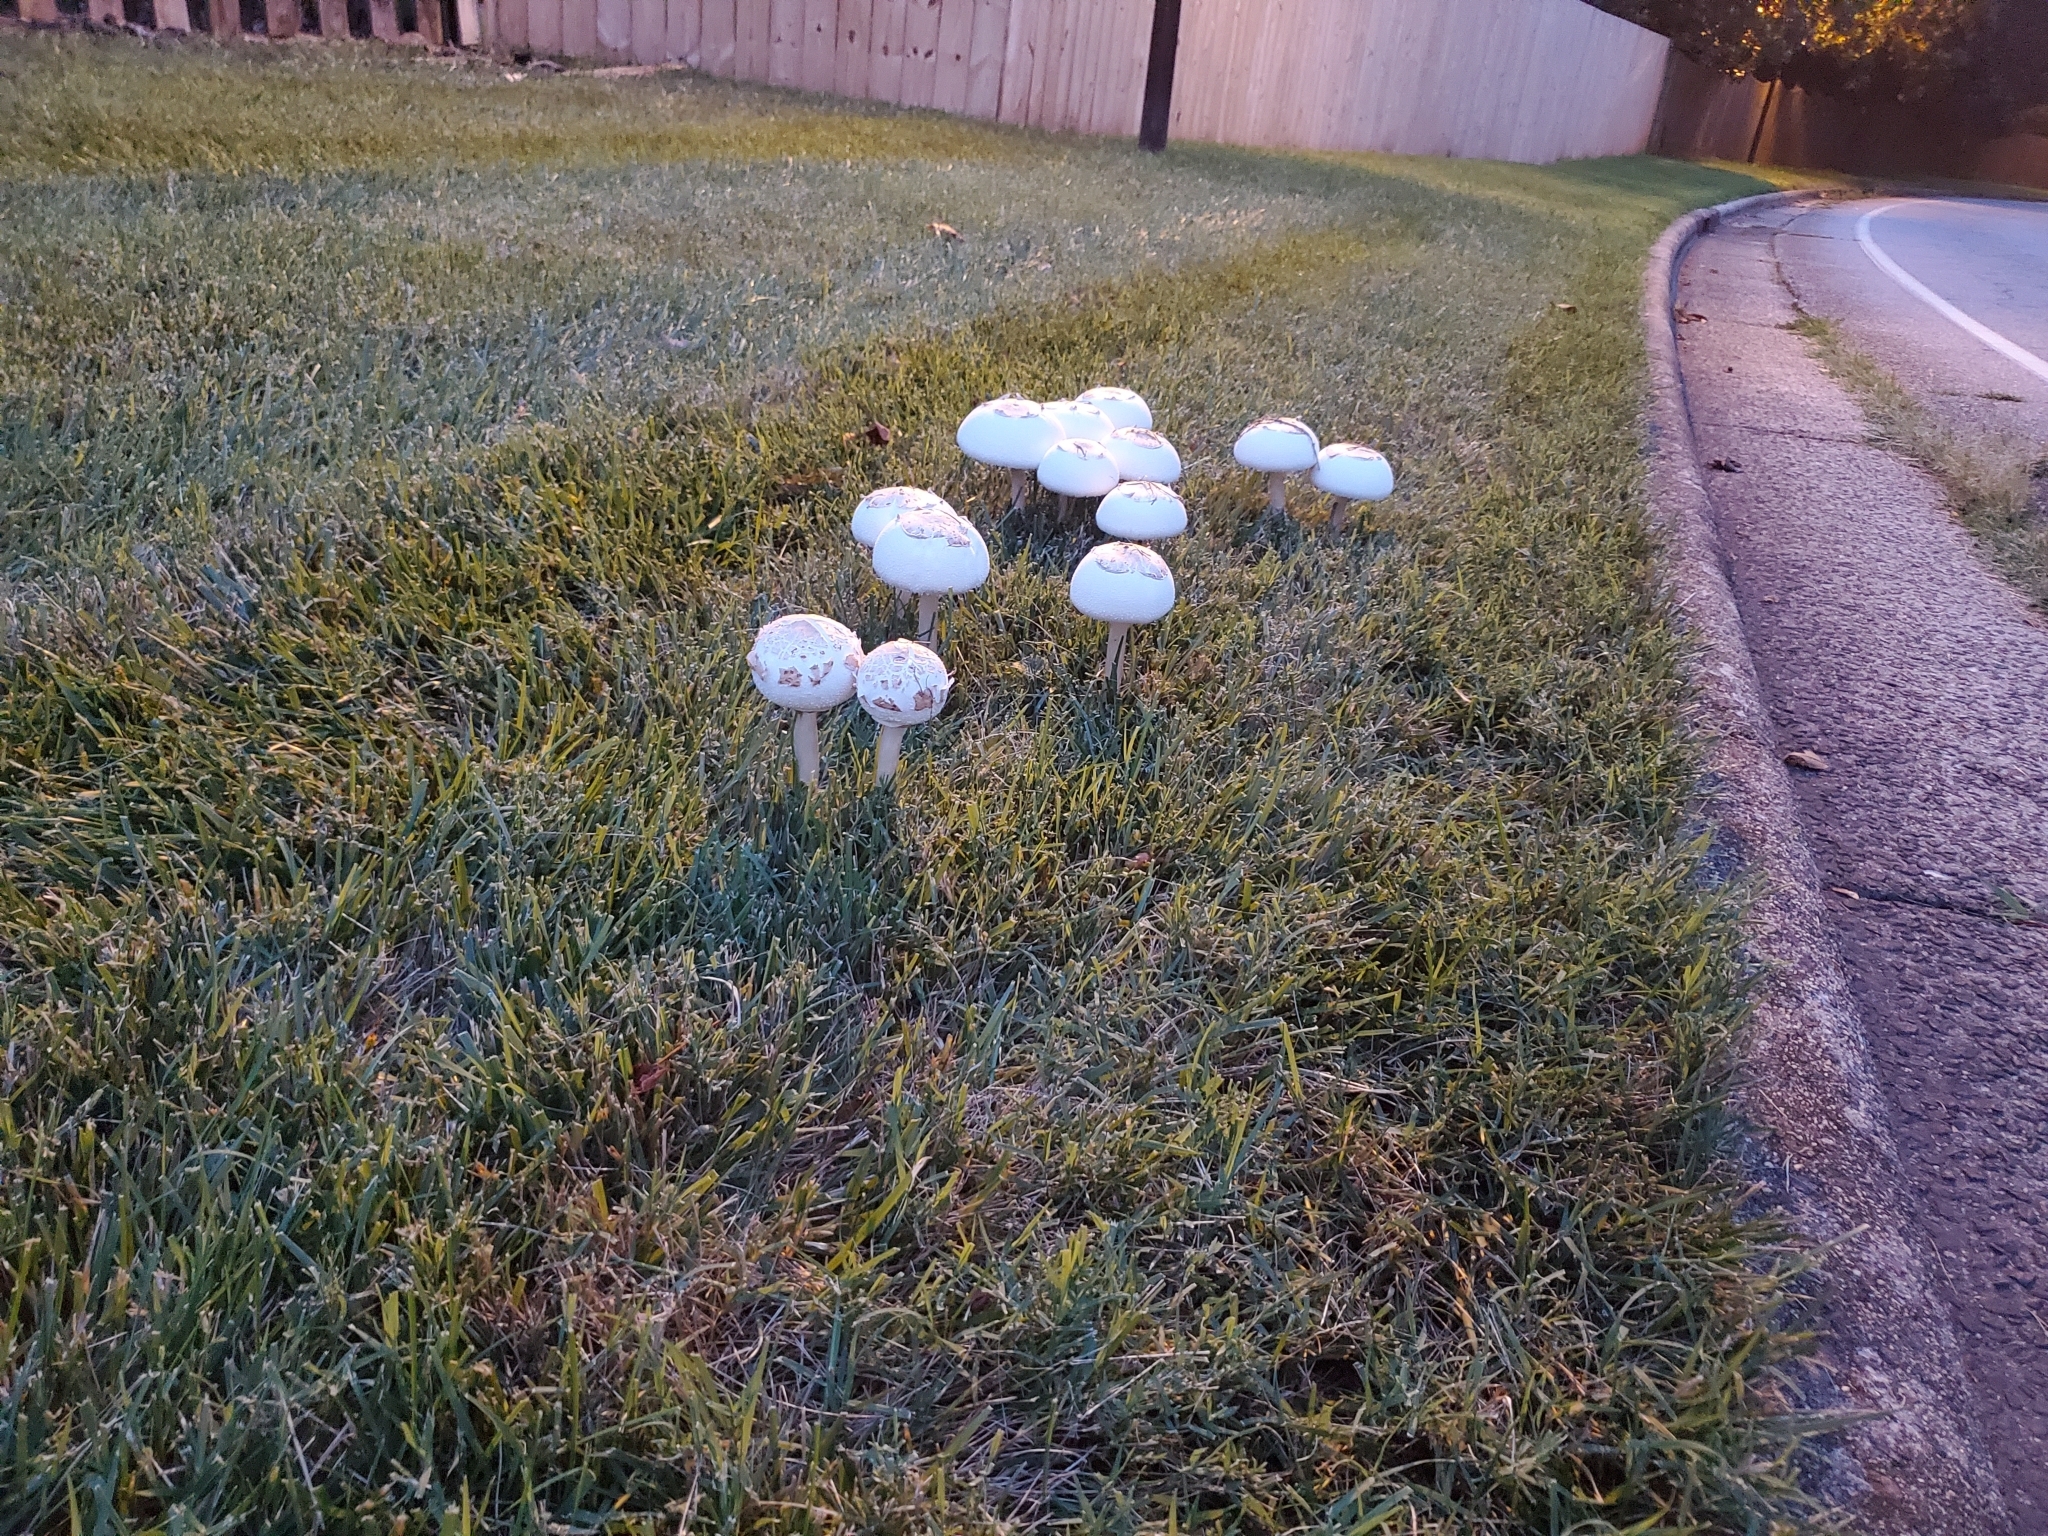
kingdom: Fungi
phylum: Basidiomycota
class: Agaricomycetes
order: Agaricales
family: Agaricaceae
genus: Chlorophyllum
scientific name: Chlorophyllum molybdites
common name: False parasol
